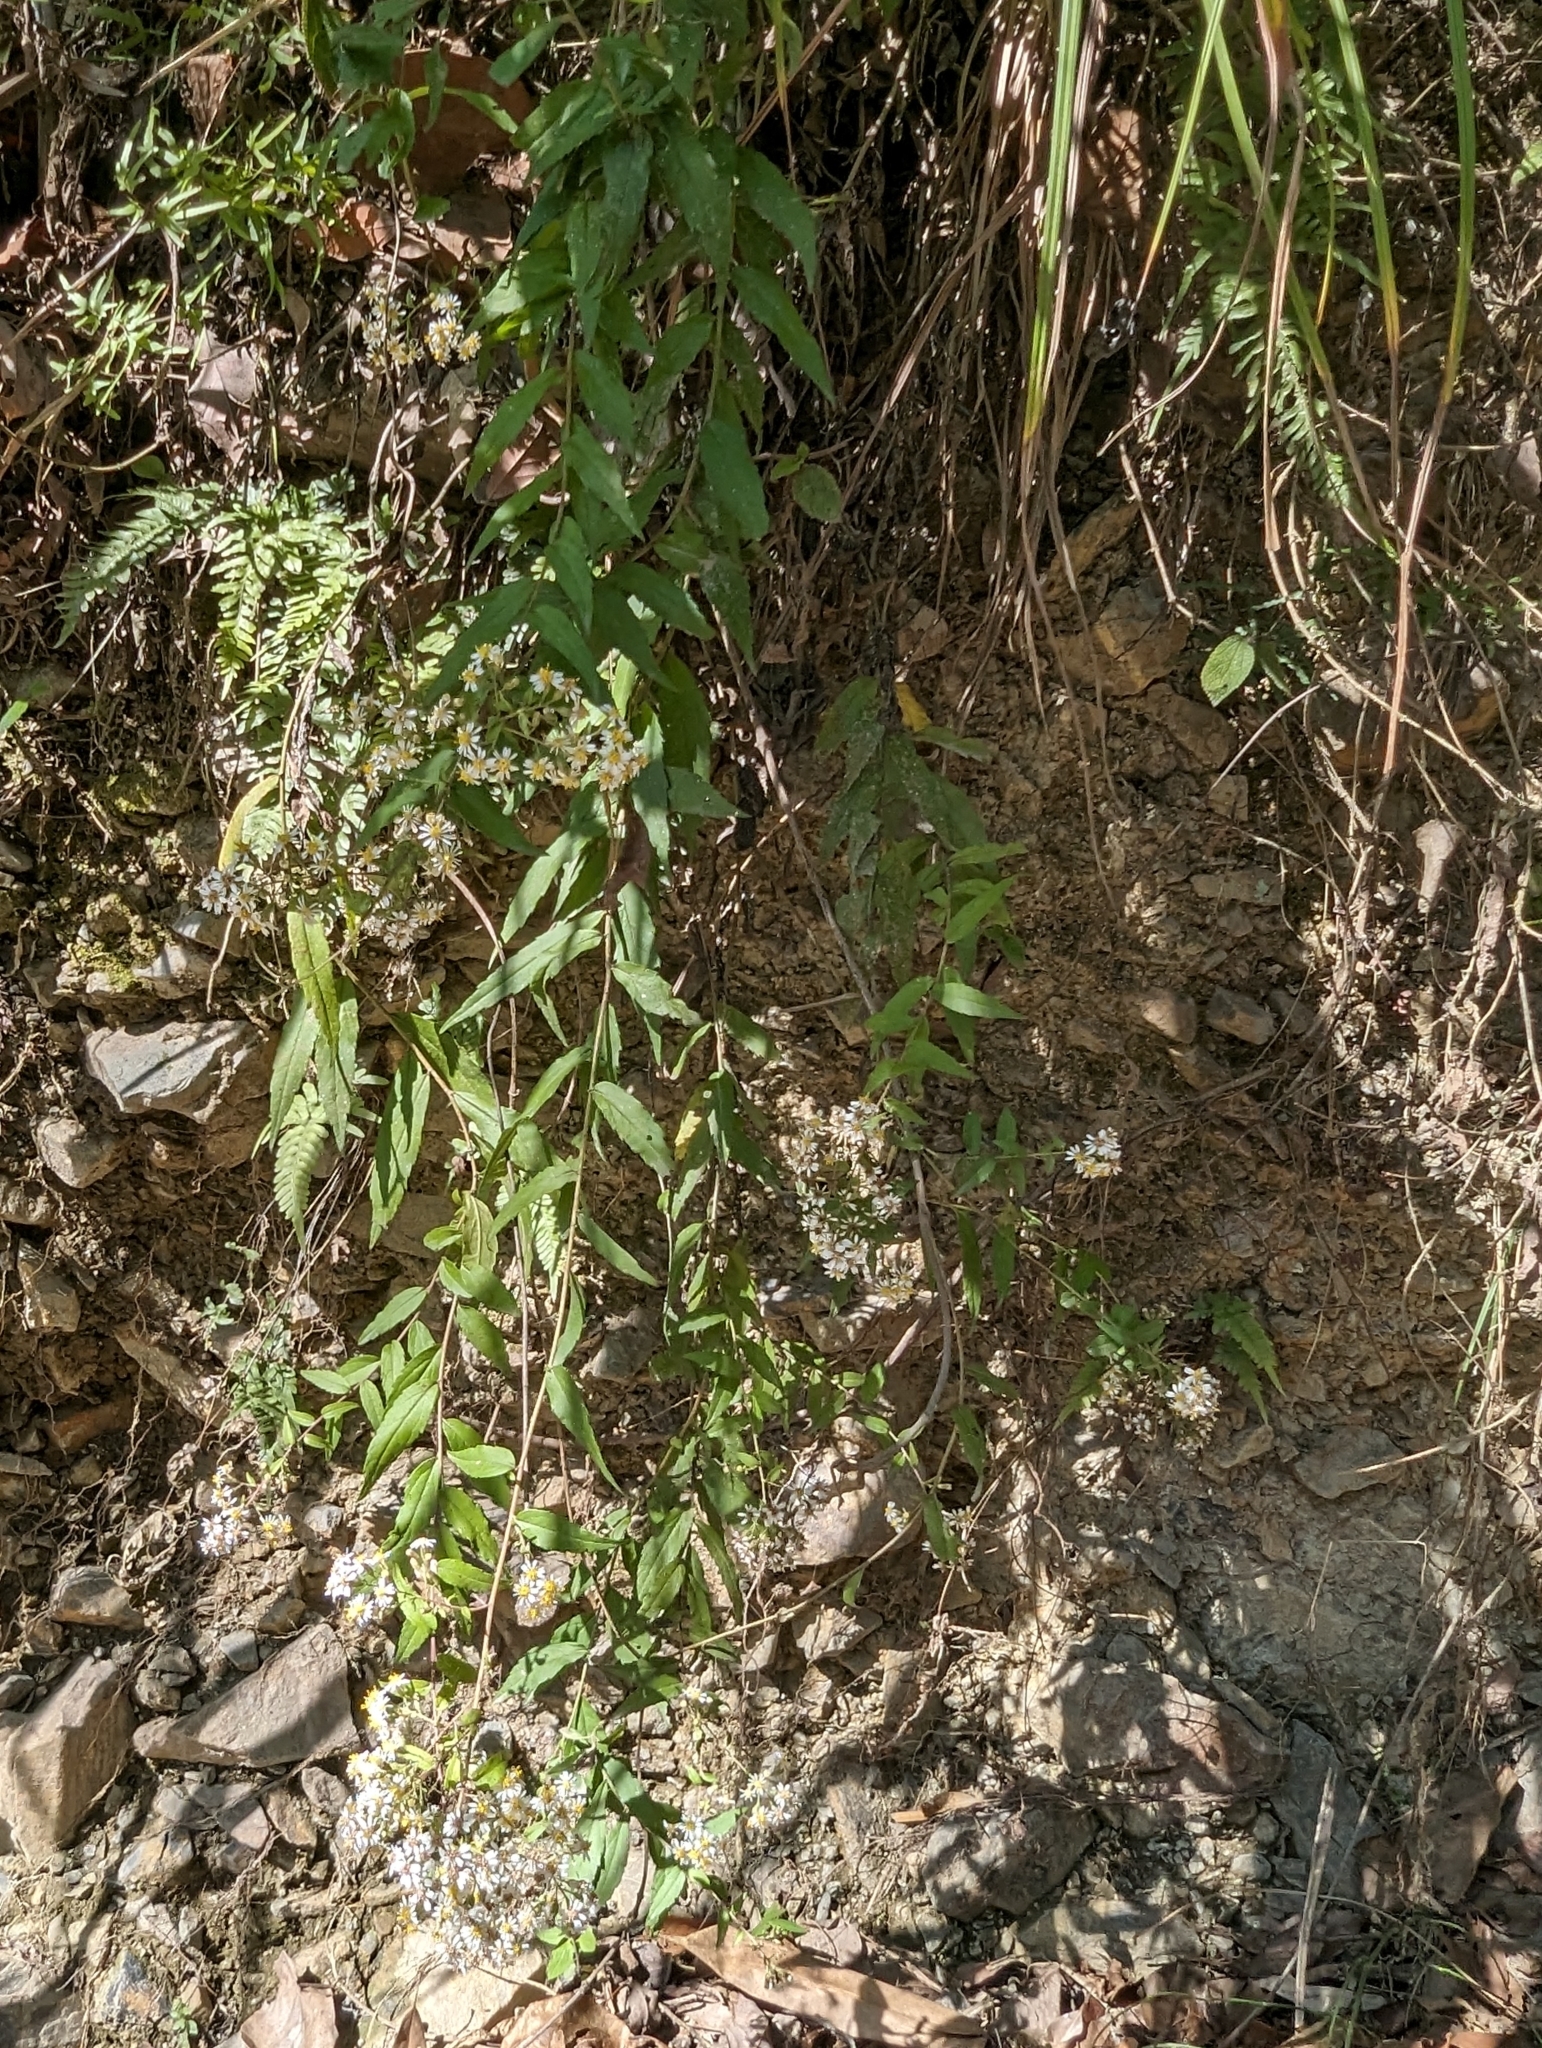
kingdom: Plantae
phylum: Tracheophyta
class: Magnoliopsida
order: Asterales
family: Asteraceae
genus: Aster
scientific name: Aster taiwanensis
